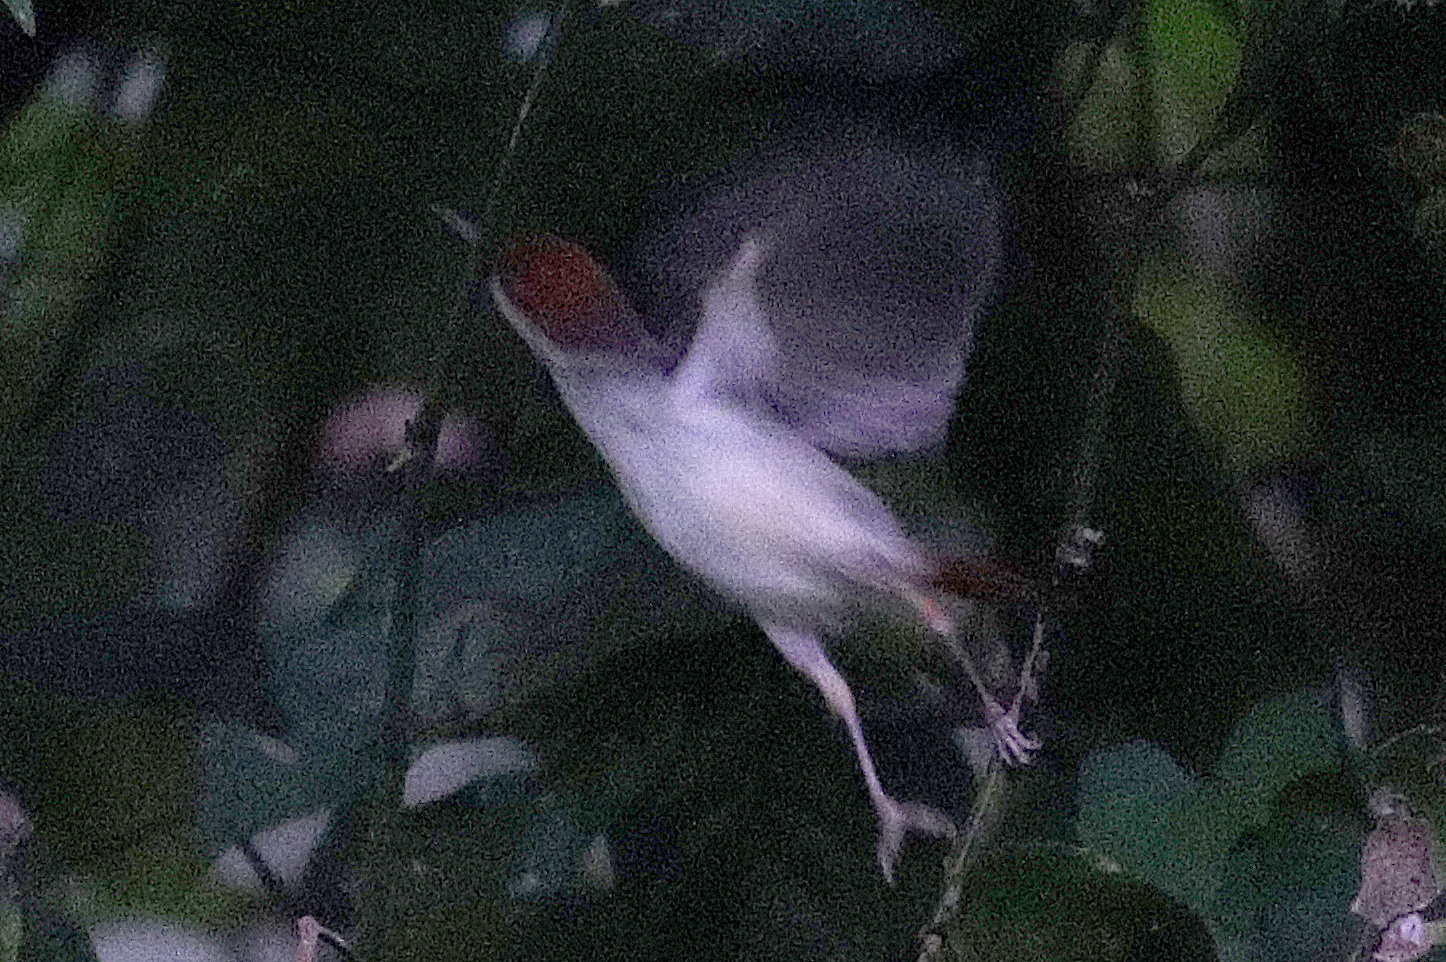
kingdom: Animalia
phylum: Chordata
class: Aves
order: Passeriformes
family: Cisticolidae
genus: Orthotomus
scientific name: Orthotomus sericeus
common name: Rufous-tailed tailorbird
